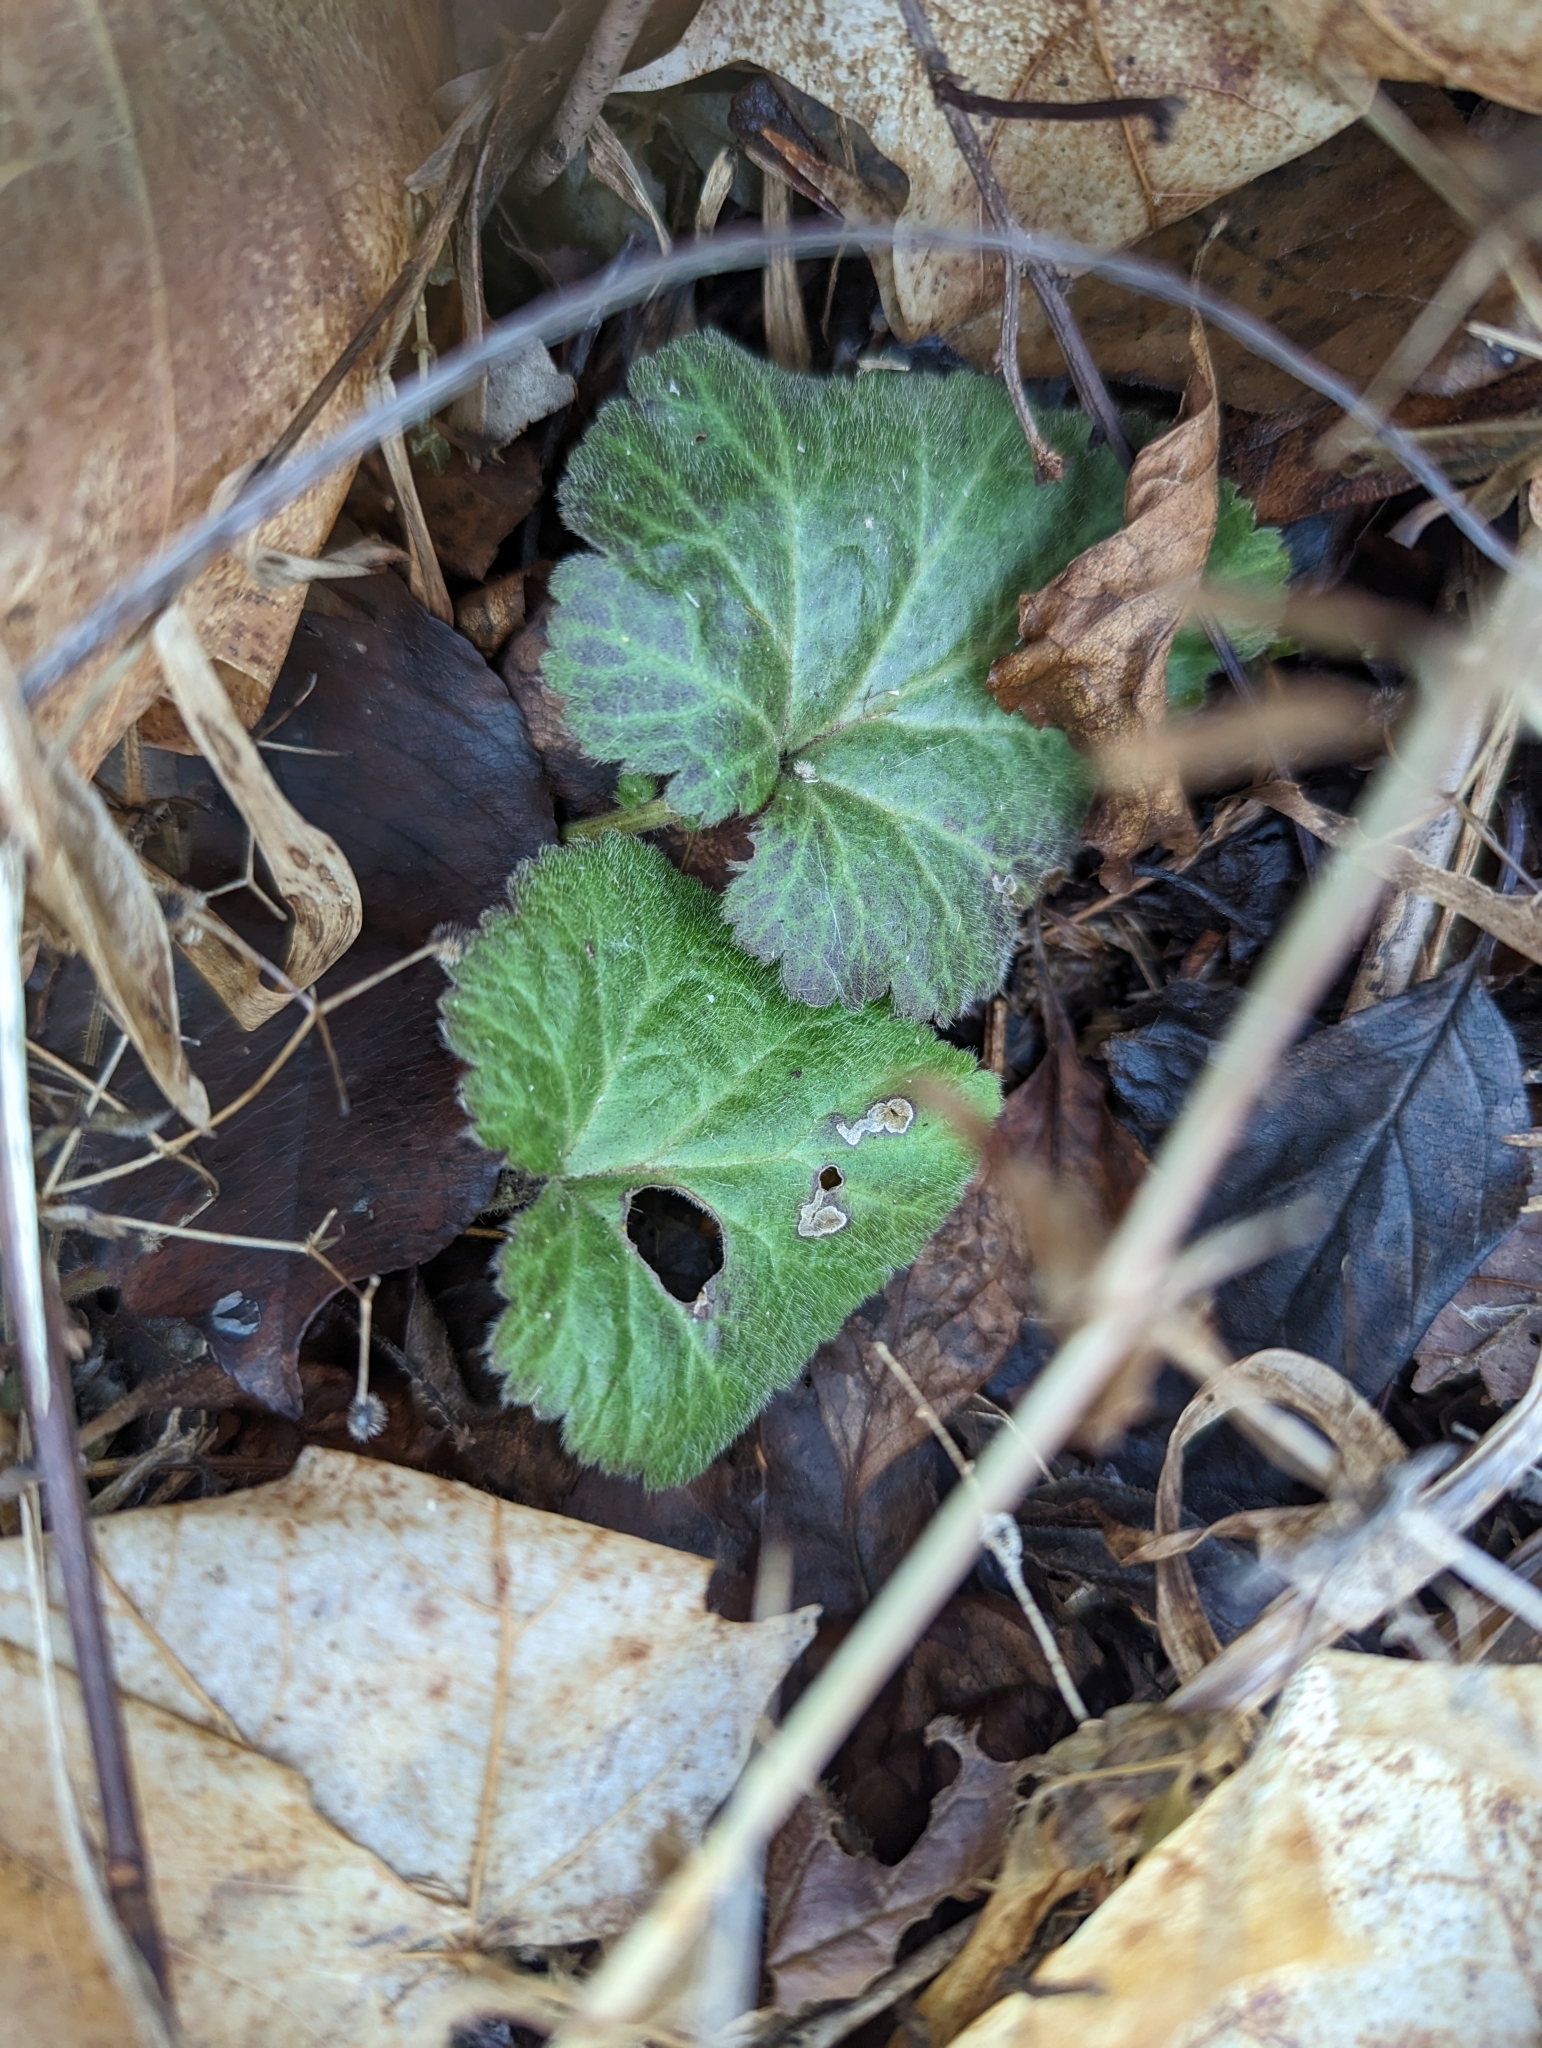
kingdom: Plantae
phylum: Tracheophyta
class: Magnoliopsida
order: Rosales
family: Rosaceae
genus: Geum
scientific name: Geum canadense
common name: White avens
